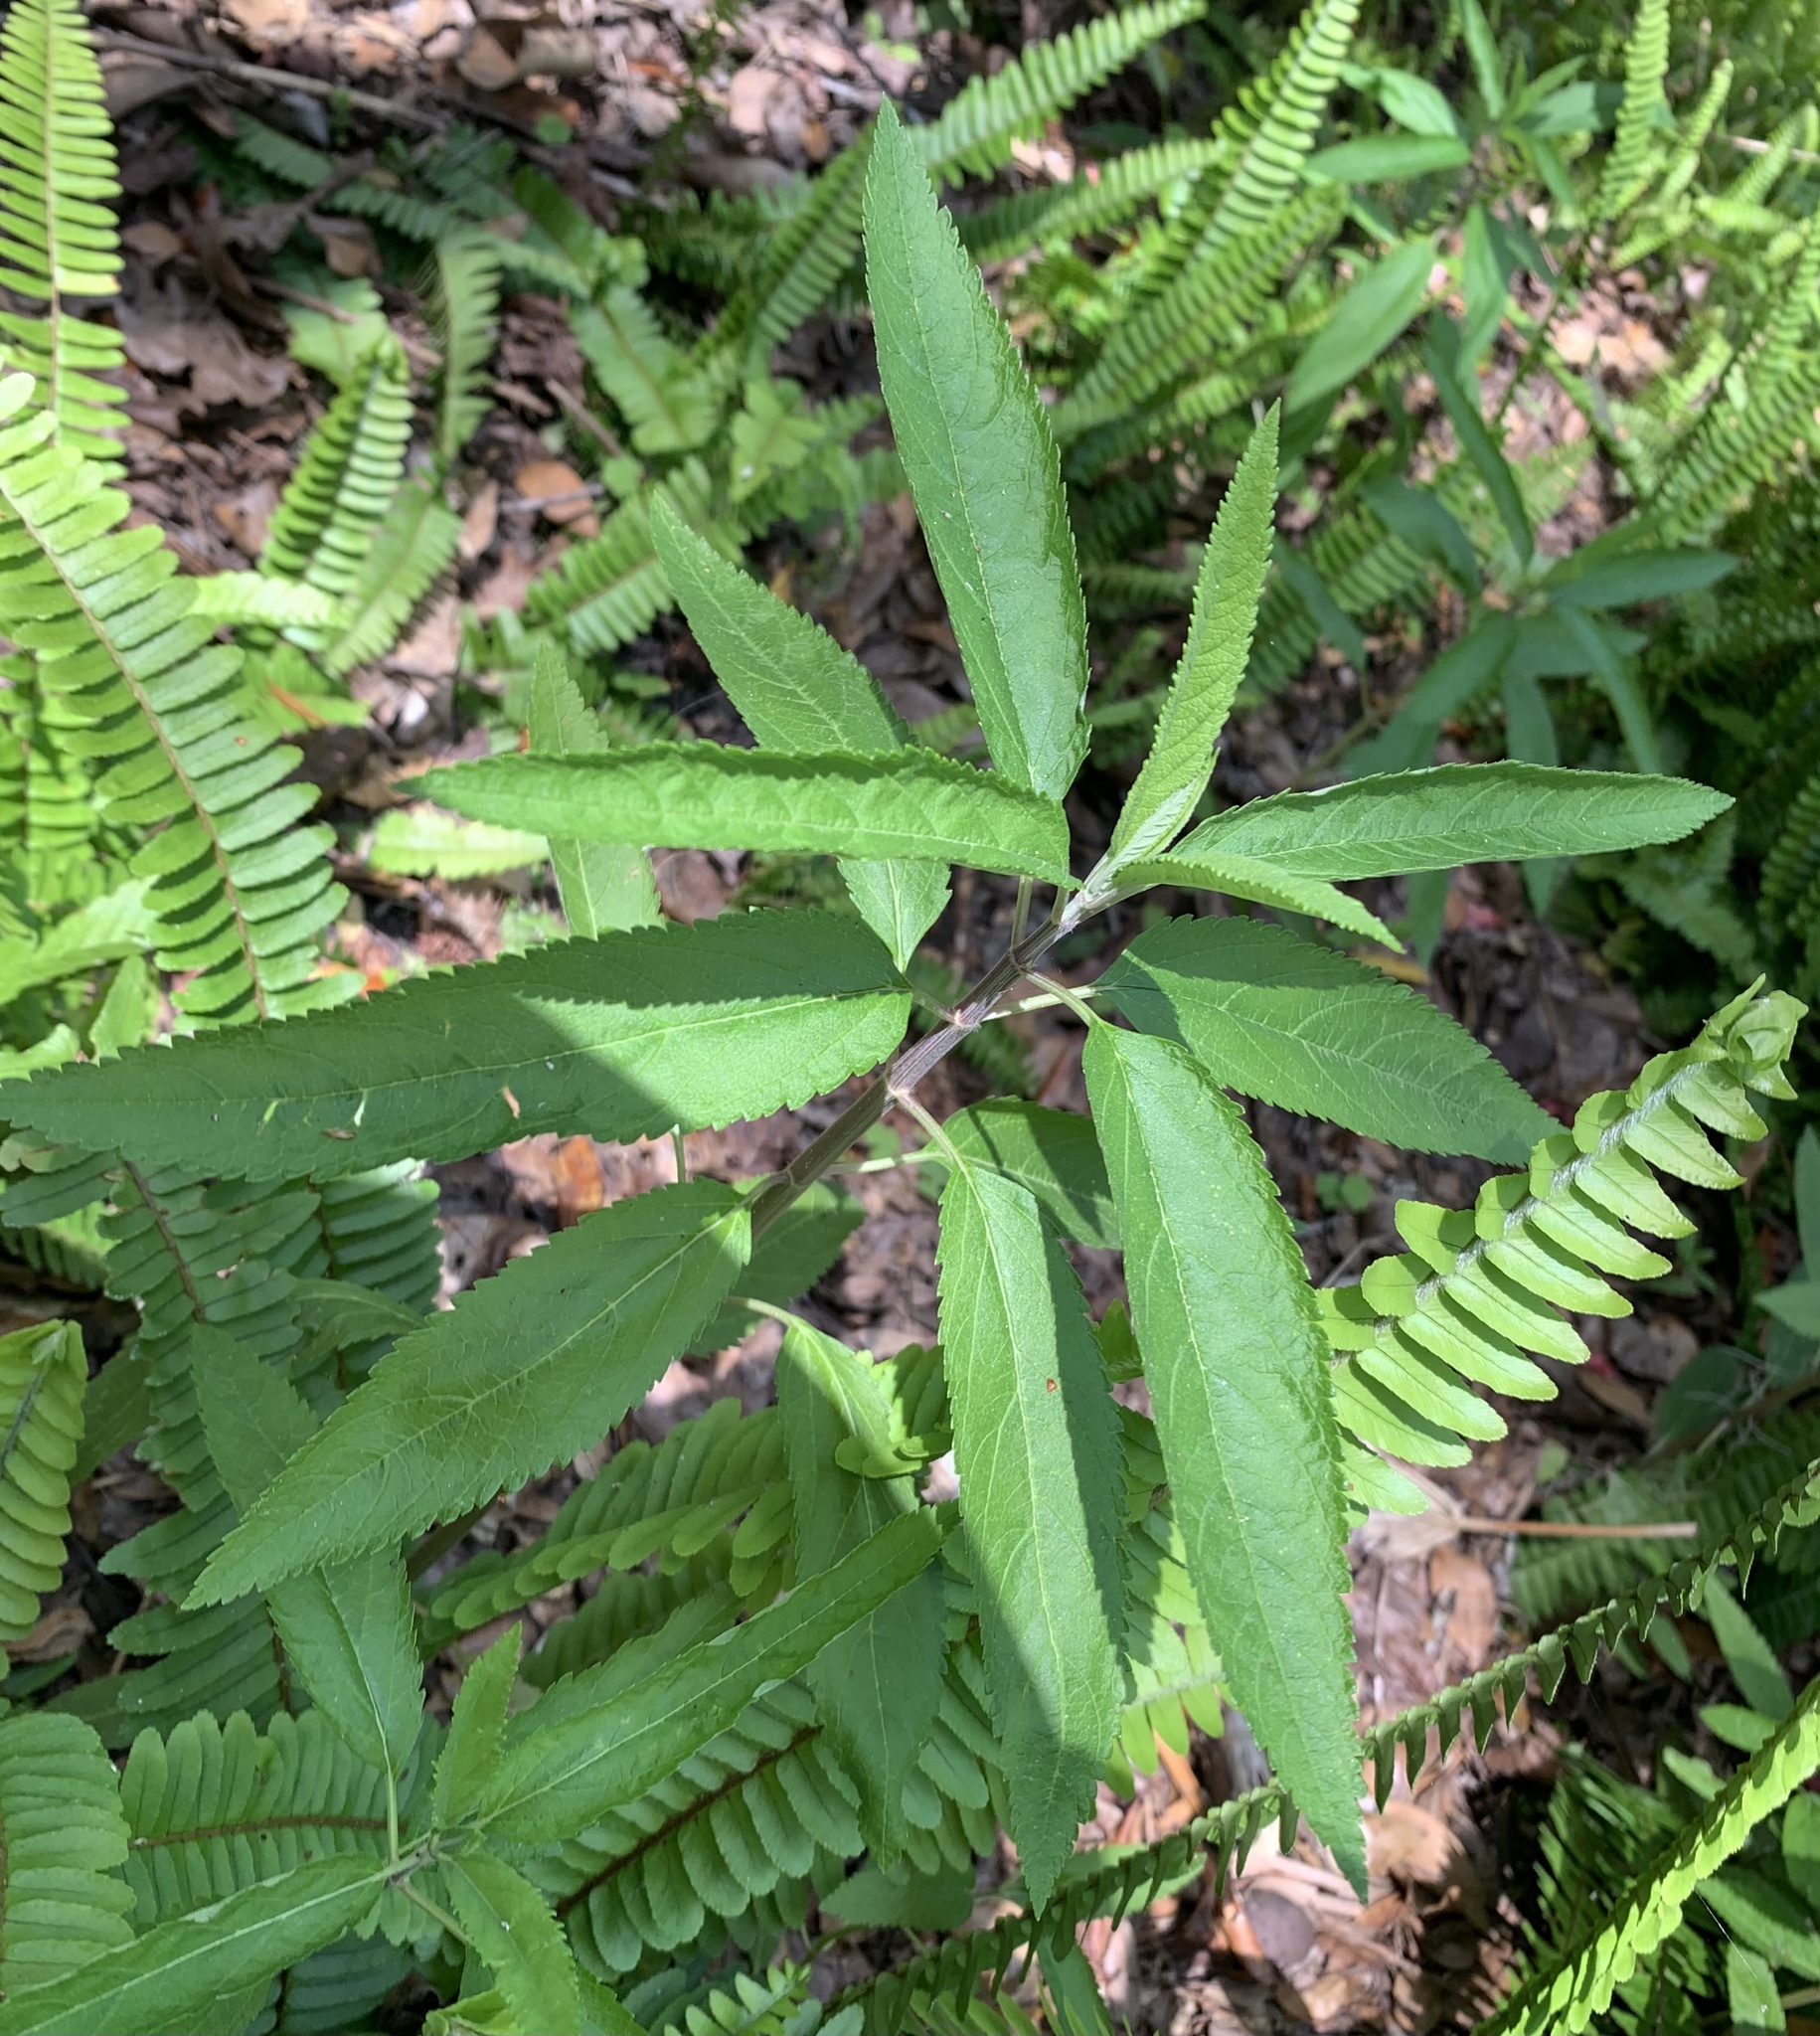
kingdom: Plantae
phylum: Tracheophyta
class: Magnoliopsida
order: Lamiales
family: Lamiaceae
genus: Teucrium
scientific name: Teucrium canadense
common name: American germander
